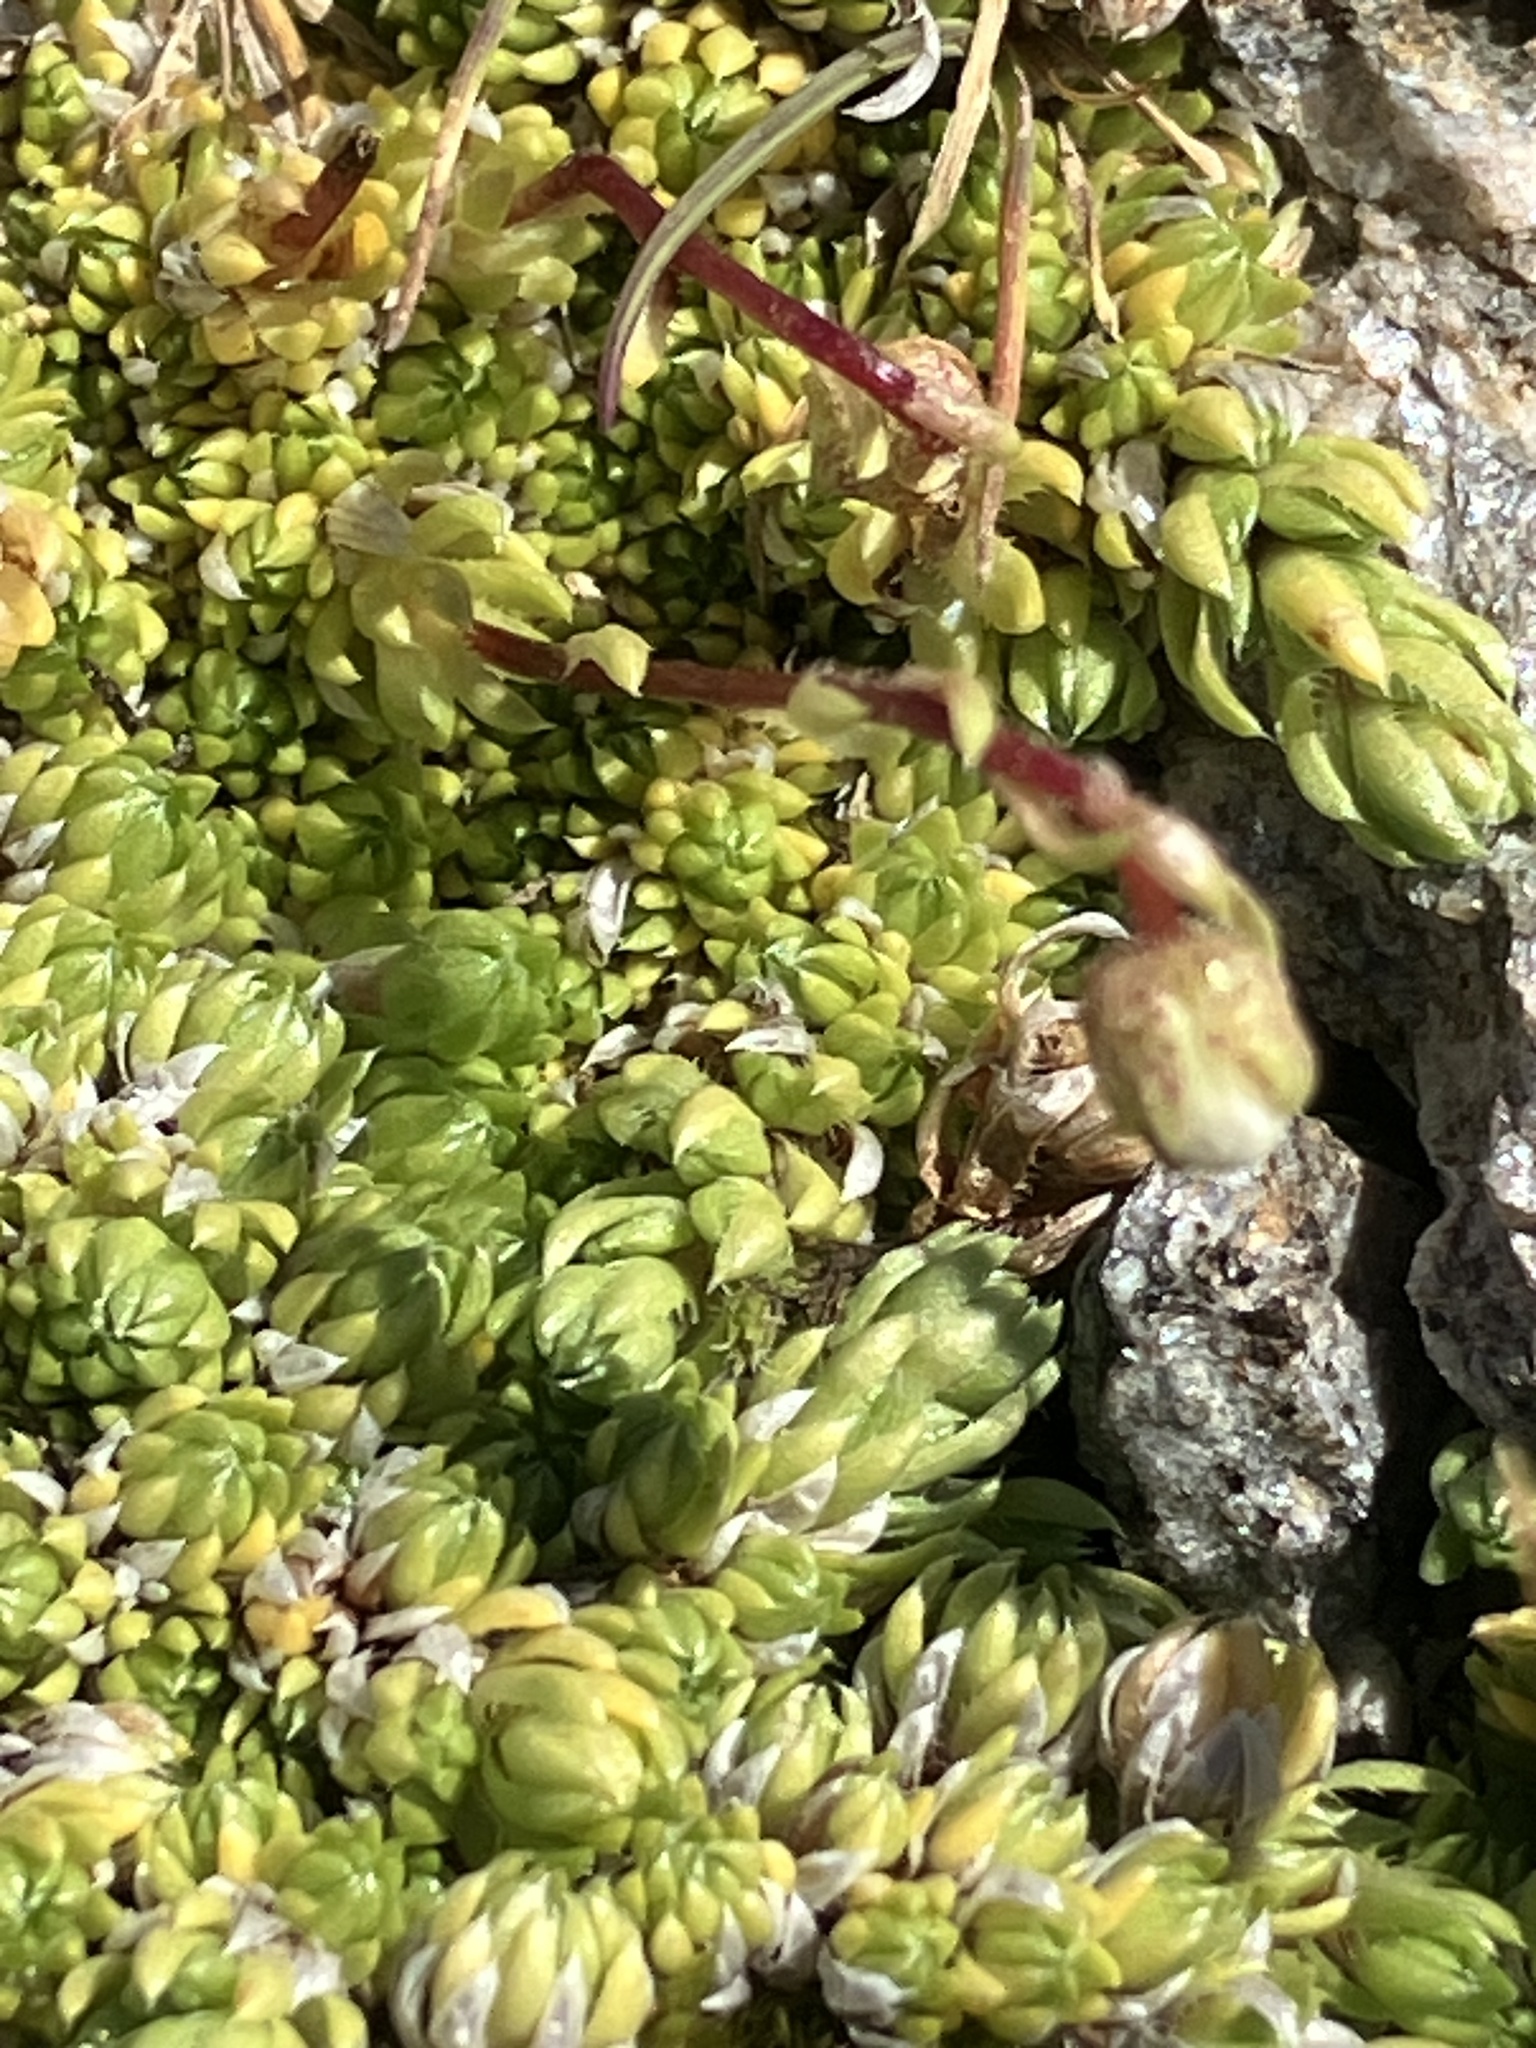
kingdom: Plantae
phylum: Tracheophyta
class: Magnoliopsida
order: Saxifragales
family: Saxifragaceae
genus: Saxifraga
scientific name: Saxifraga bryoides
